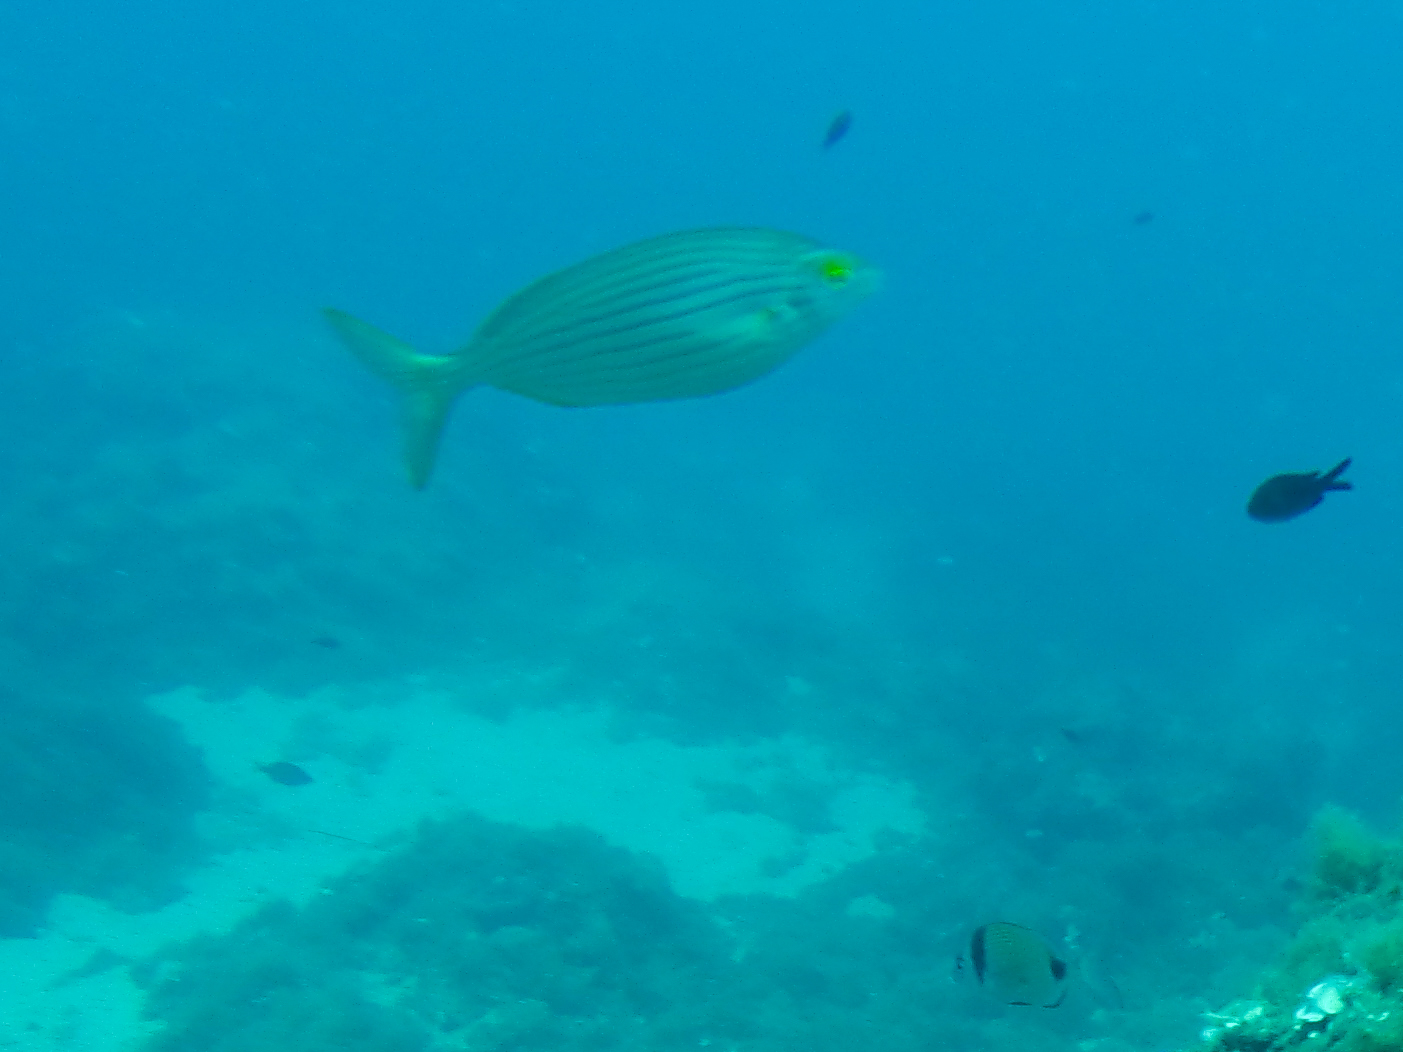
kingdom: Animalia
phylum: Chordata
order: Perciformes
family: Sparidae
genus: Sarpa
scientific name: Sarpa salpa
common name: Salema
